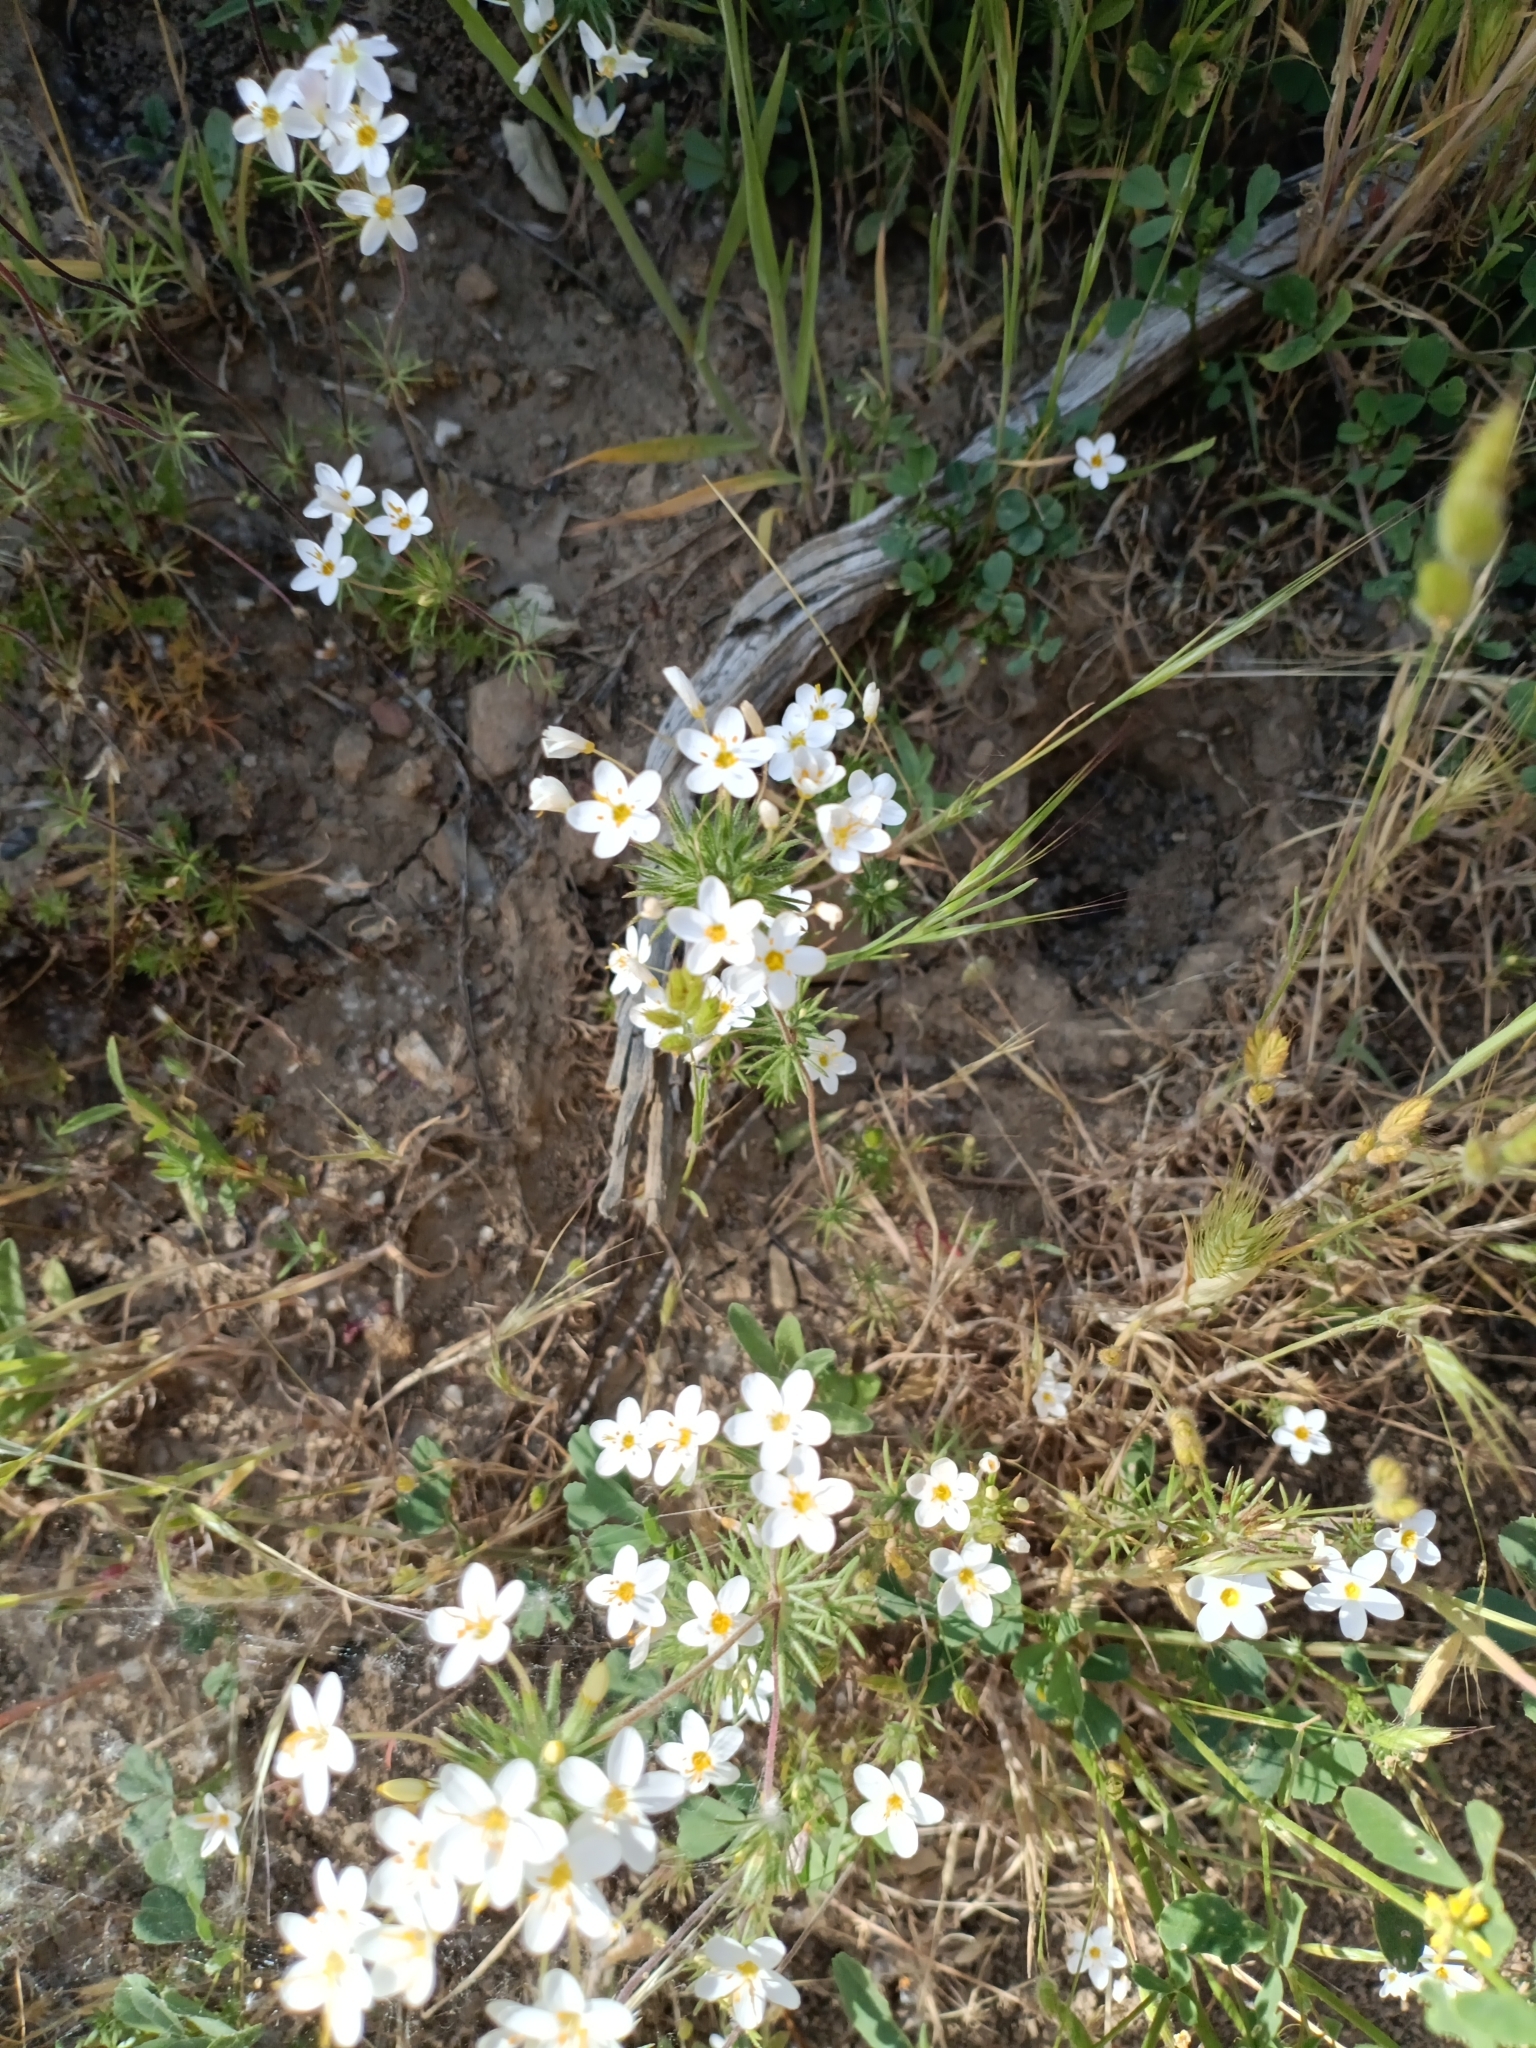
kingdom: Plantae
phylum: Tracheophyta
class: Magnoliopsida
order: Ericales
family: Polemoniaceae
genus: Leptosiphon
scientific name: Leptosiphon parviflorus
